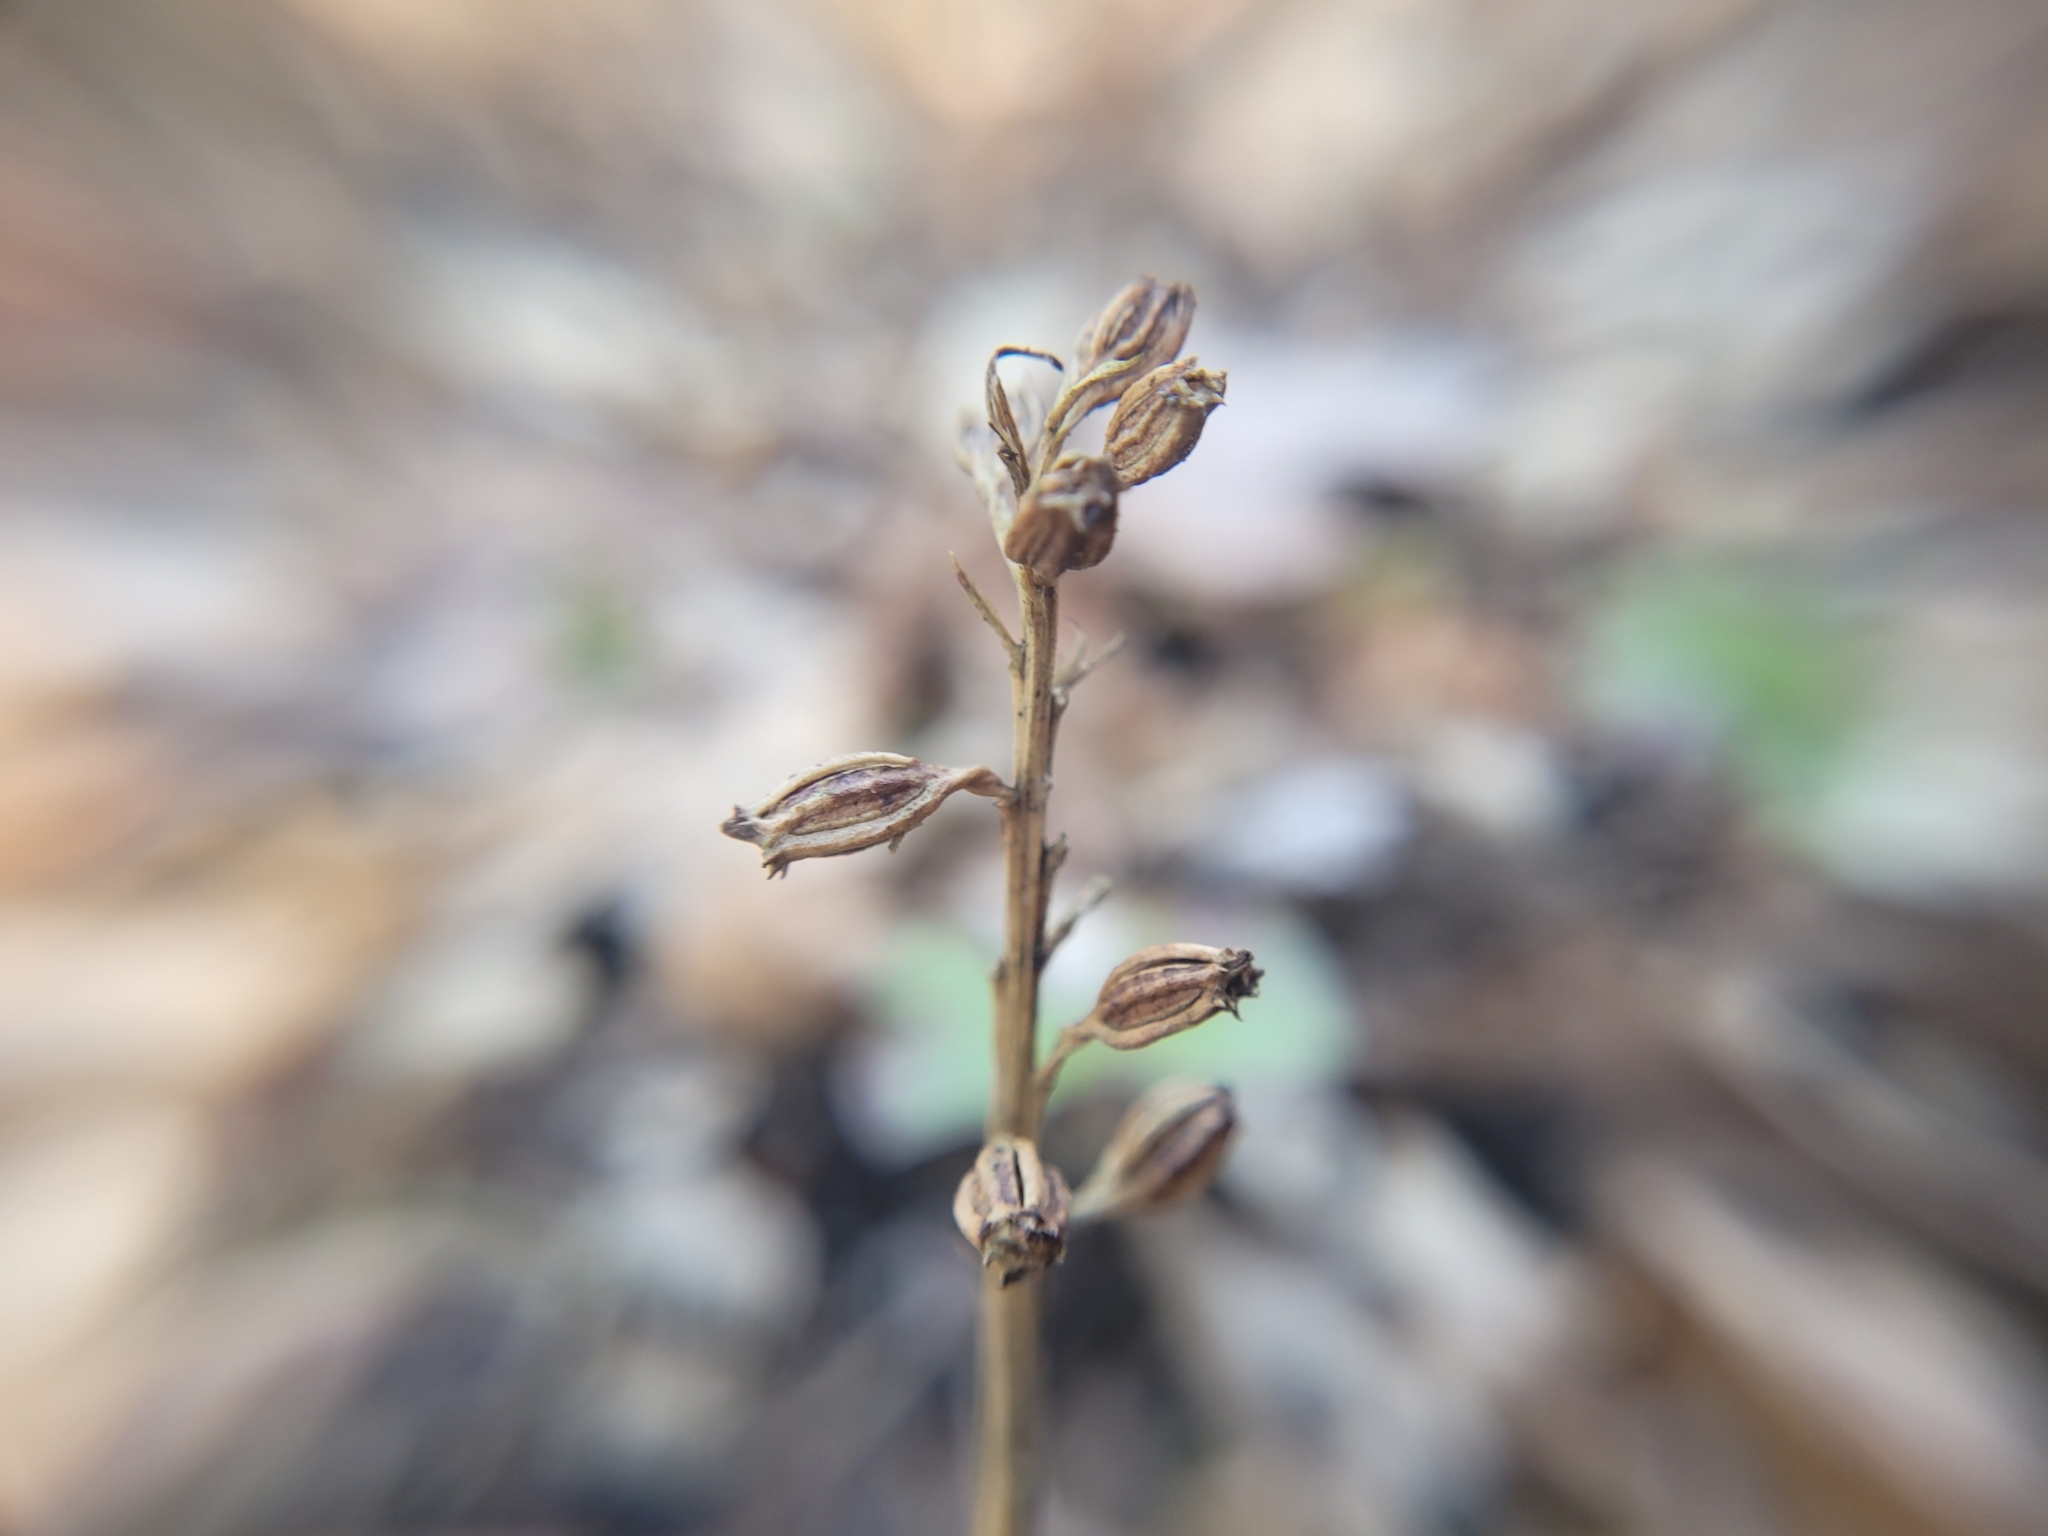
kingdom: Plantae
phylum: Tracheophyta
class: Liliopsida
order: Asparagales
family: Orchidaceae
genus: Neottia
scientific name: Neottia nidus-avis
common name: Bird's-nest orchid
